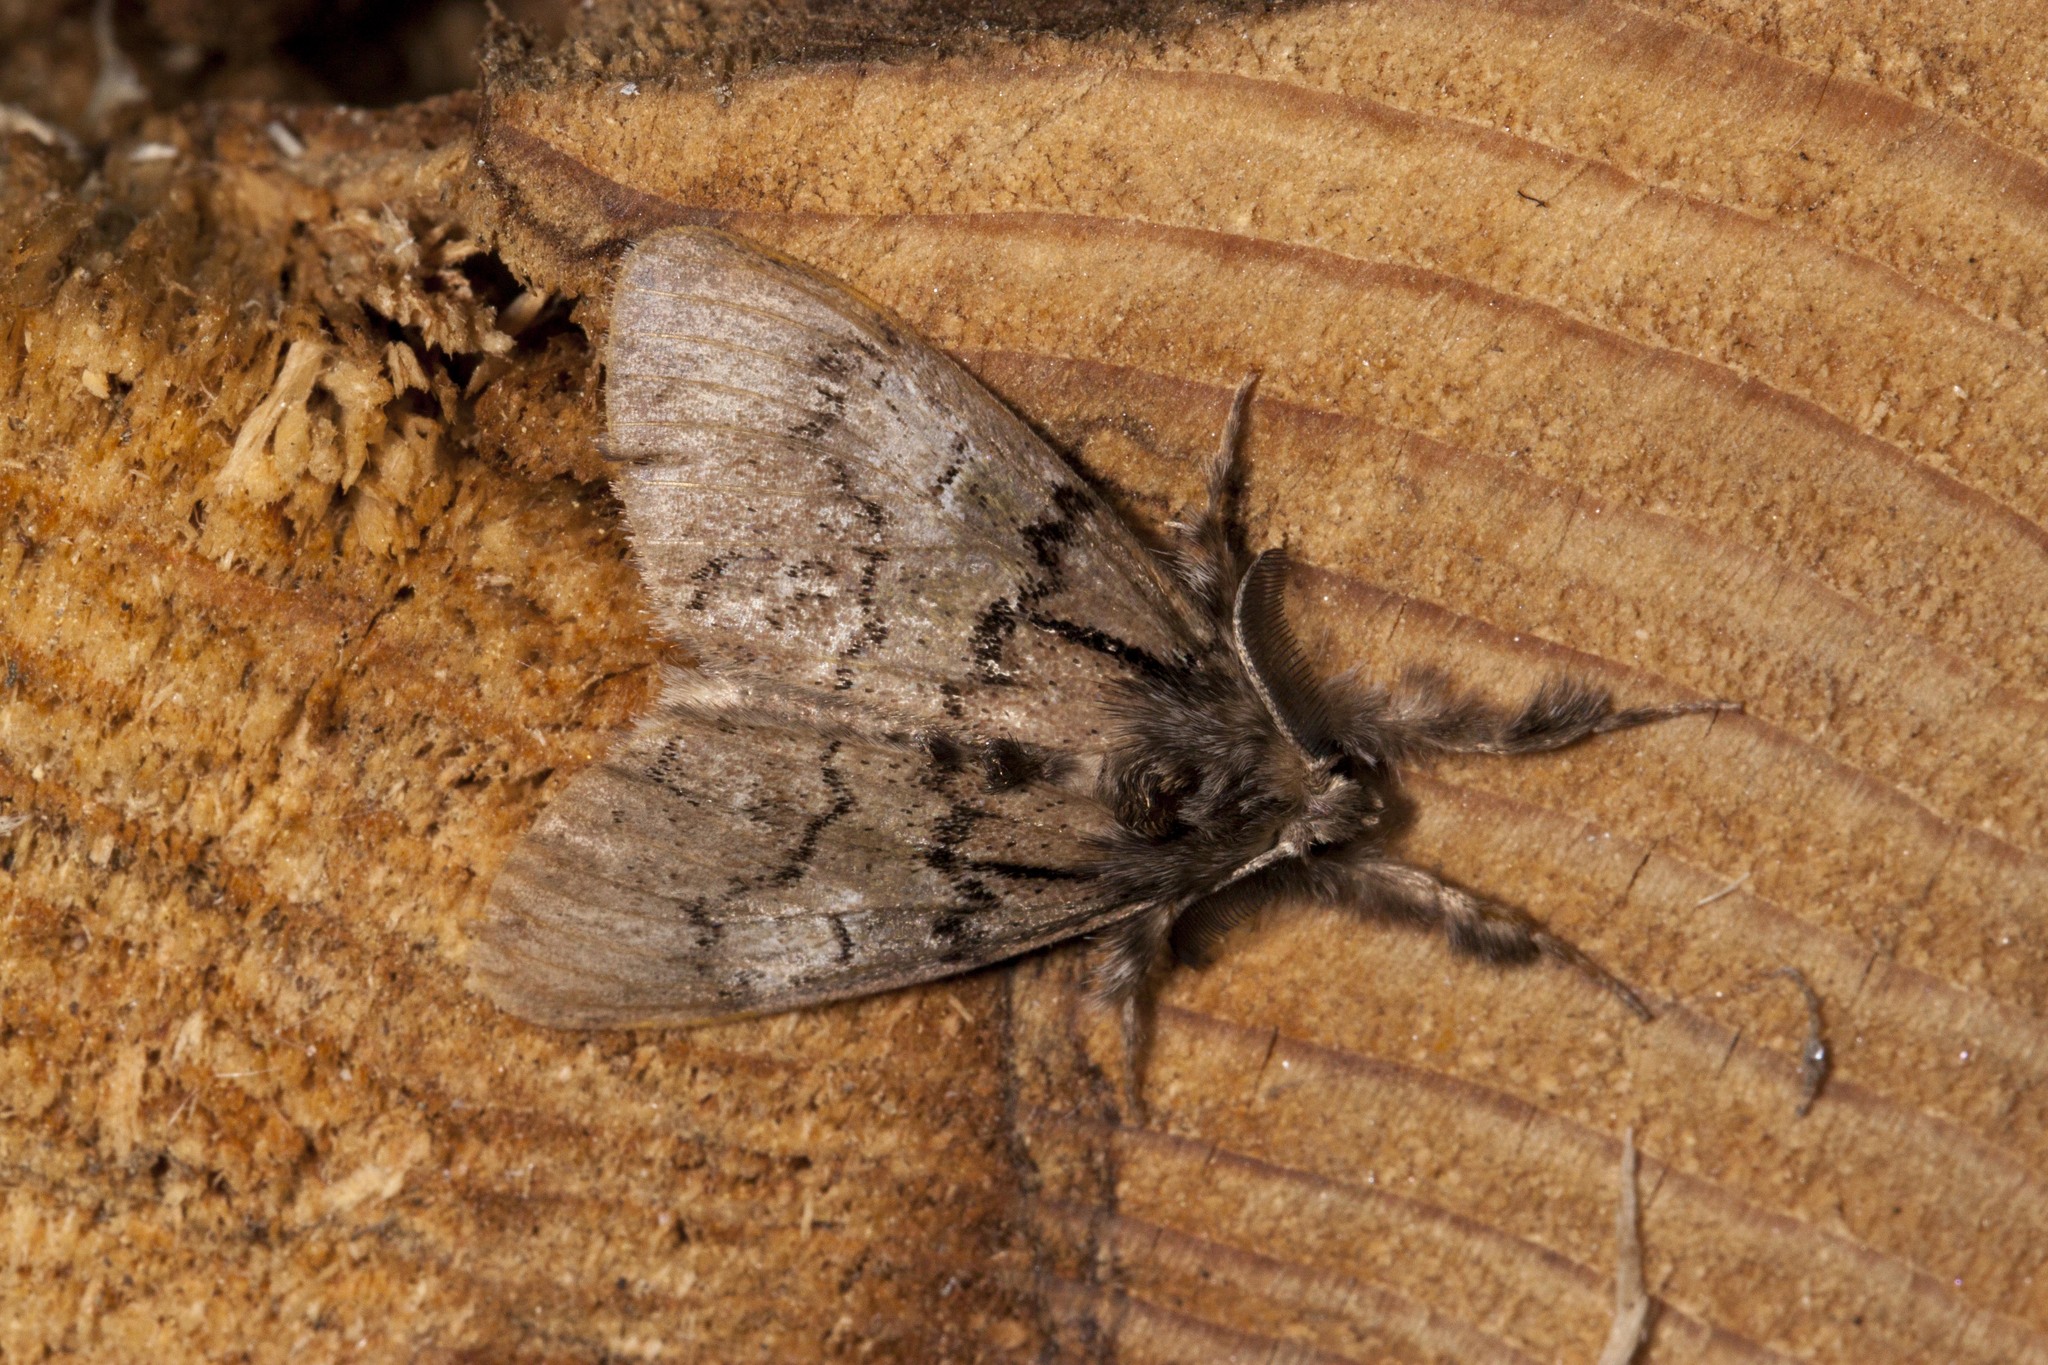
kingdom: Animalia
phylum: Arthropoda
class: Insecta
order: Lepidoptera
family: Erebidae
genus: Dasychira
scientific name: Dasychira vagans
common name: Variable tussock moth
